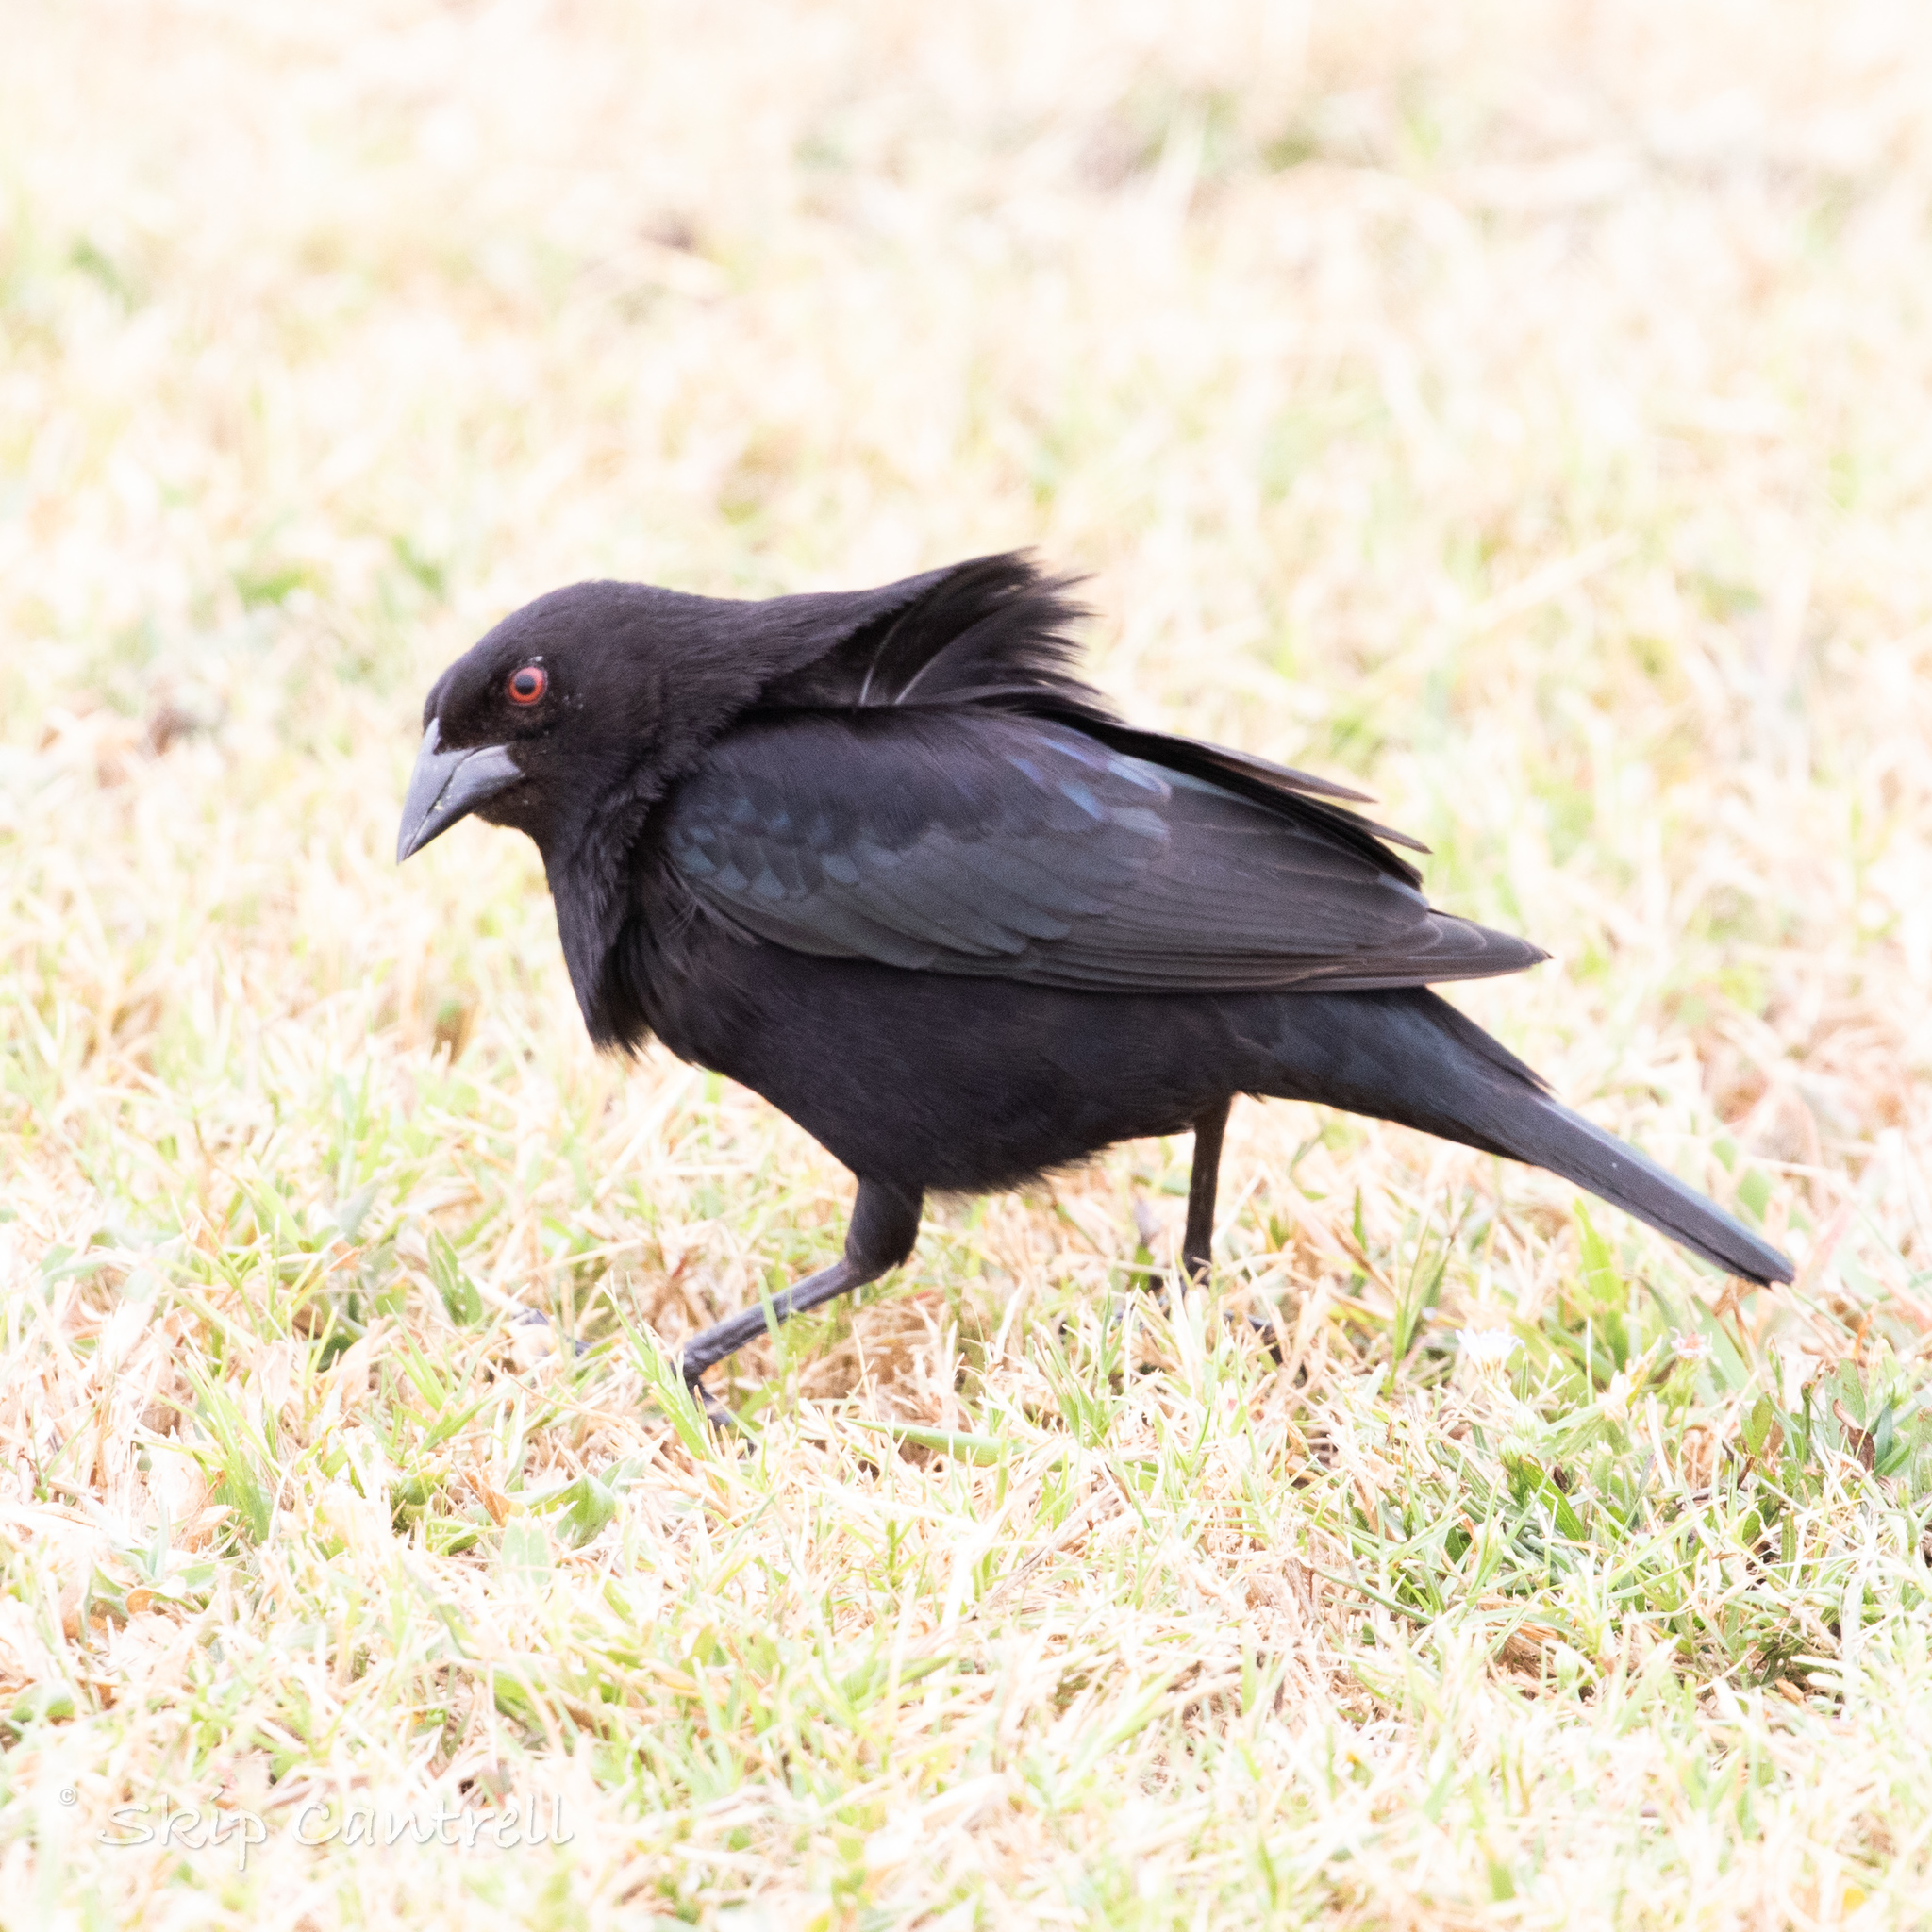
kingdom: Animalia
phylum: Chordata
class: Aves
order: Passeriformes
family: Icteridae
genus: Molothrus
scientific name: Molothrus aeneus
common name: Bronzed cowbird
